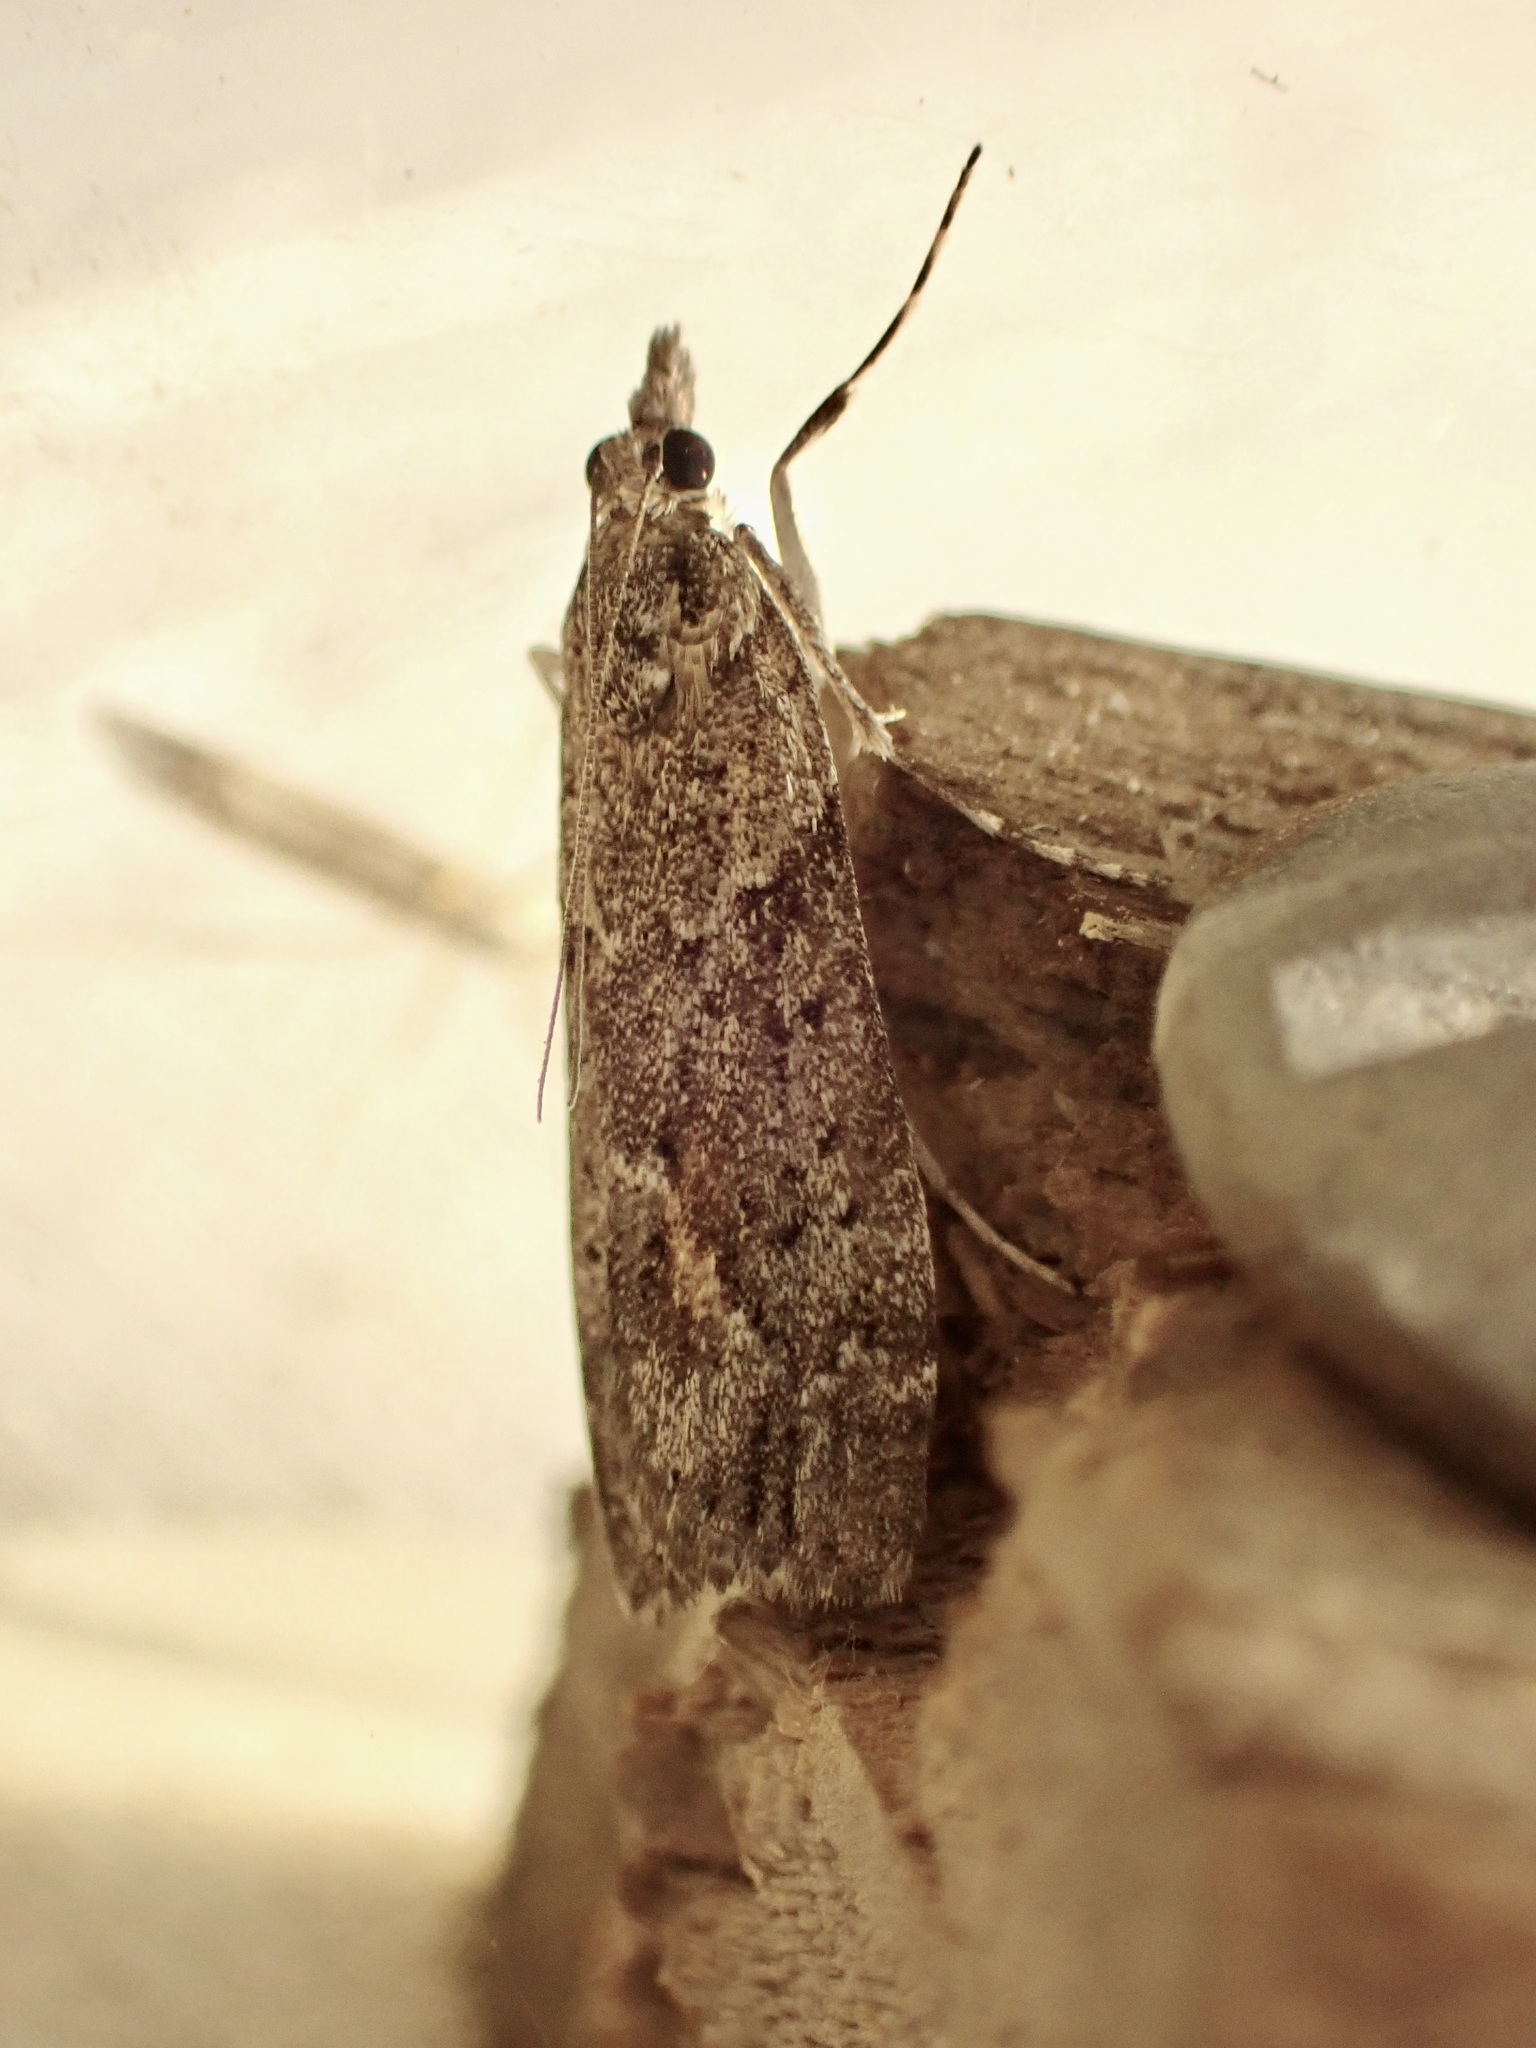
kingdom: Animalia
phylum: Arthropoda
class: Insecta
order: Lepidoptera
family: Crambidae
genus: Eudonia
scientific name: Eudonia submarginalis
